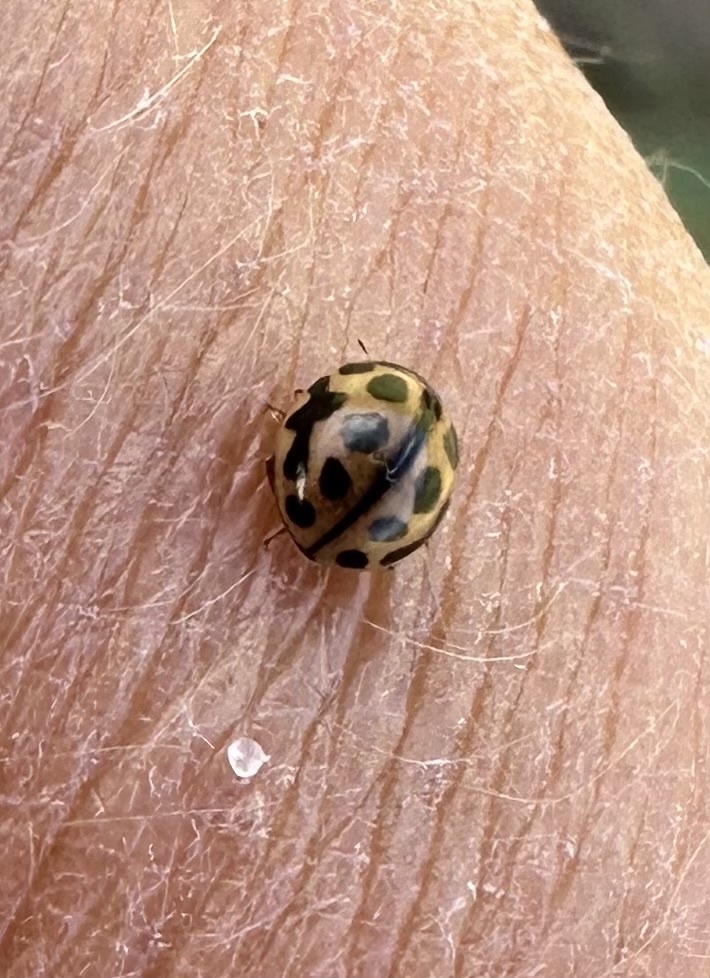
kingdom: Animalia
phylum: Arthropoda
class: Insecta
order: Coleoptera
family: Coccinellidae
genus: Tytthaspis
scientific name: Tytthaspis sedecimpunctata
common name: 16-spot ladybird
